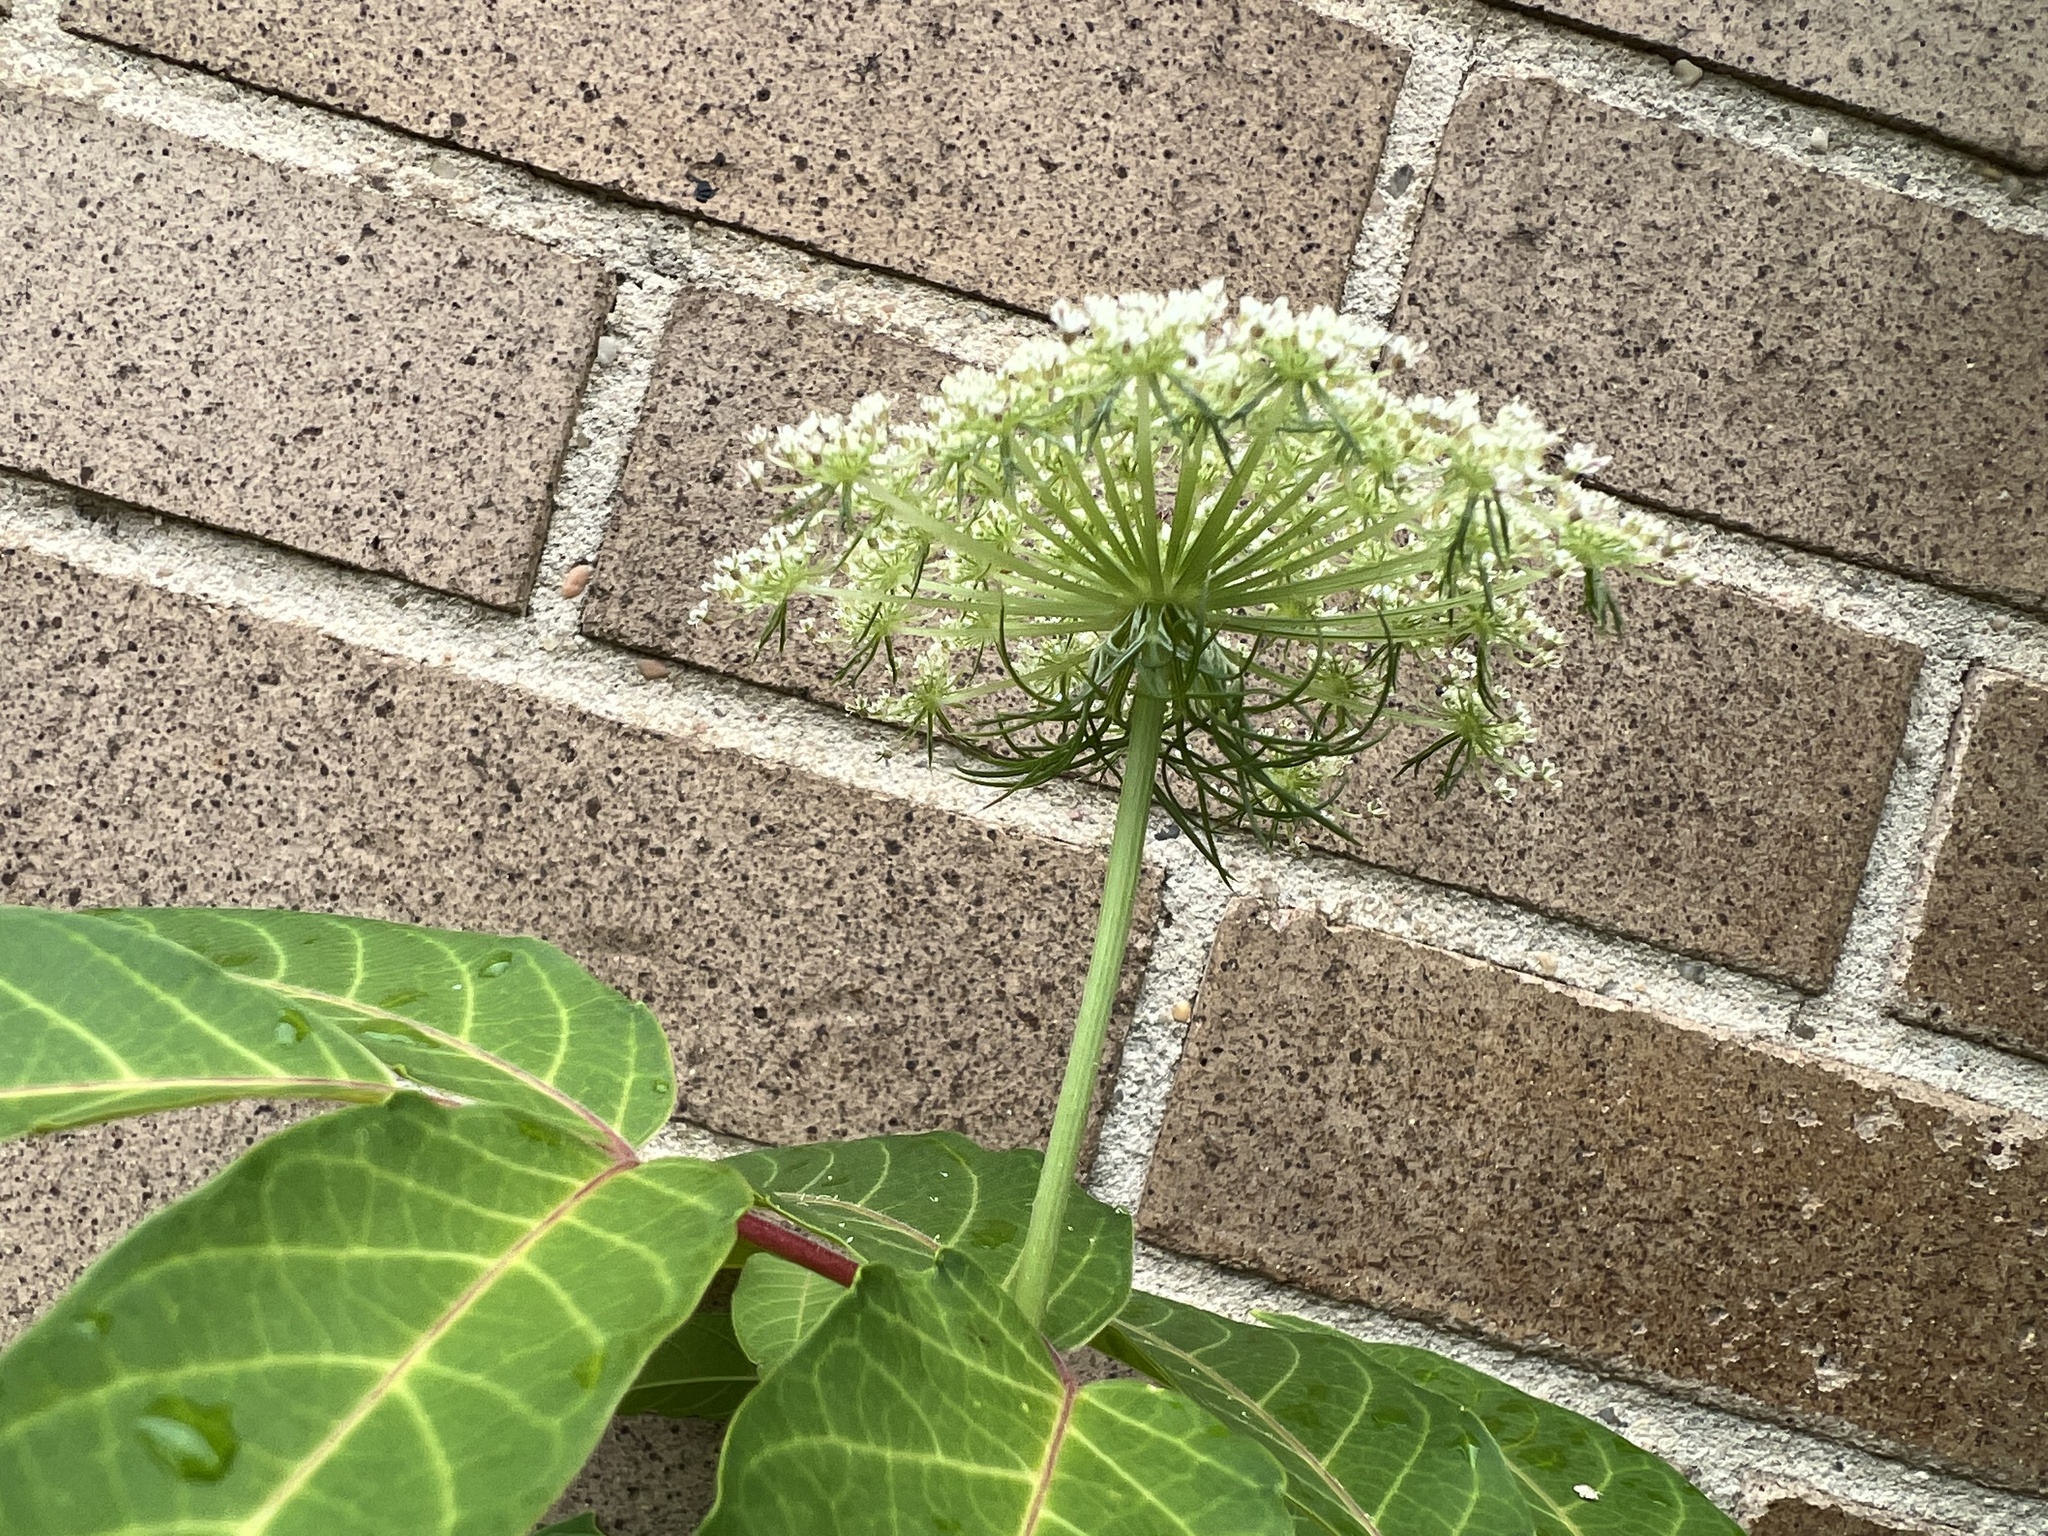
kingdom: Plantae
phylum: Tracheophyta
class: Magnoliopsida
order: Apiales
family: Apiaceae
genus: Daucus
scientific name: Daucus carota
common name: Wild carrot
